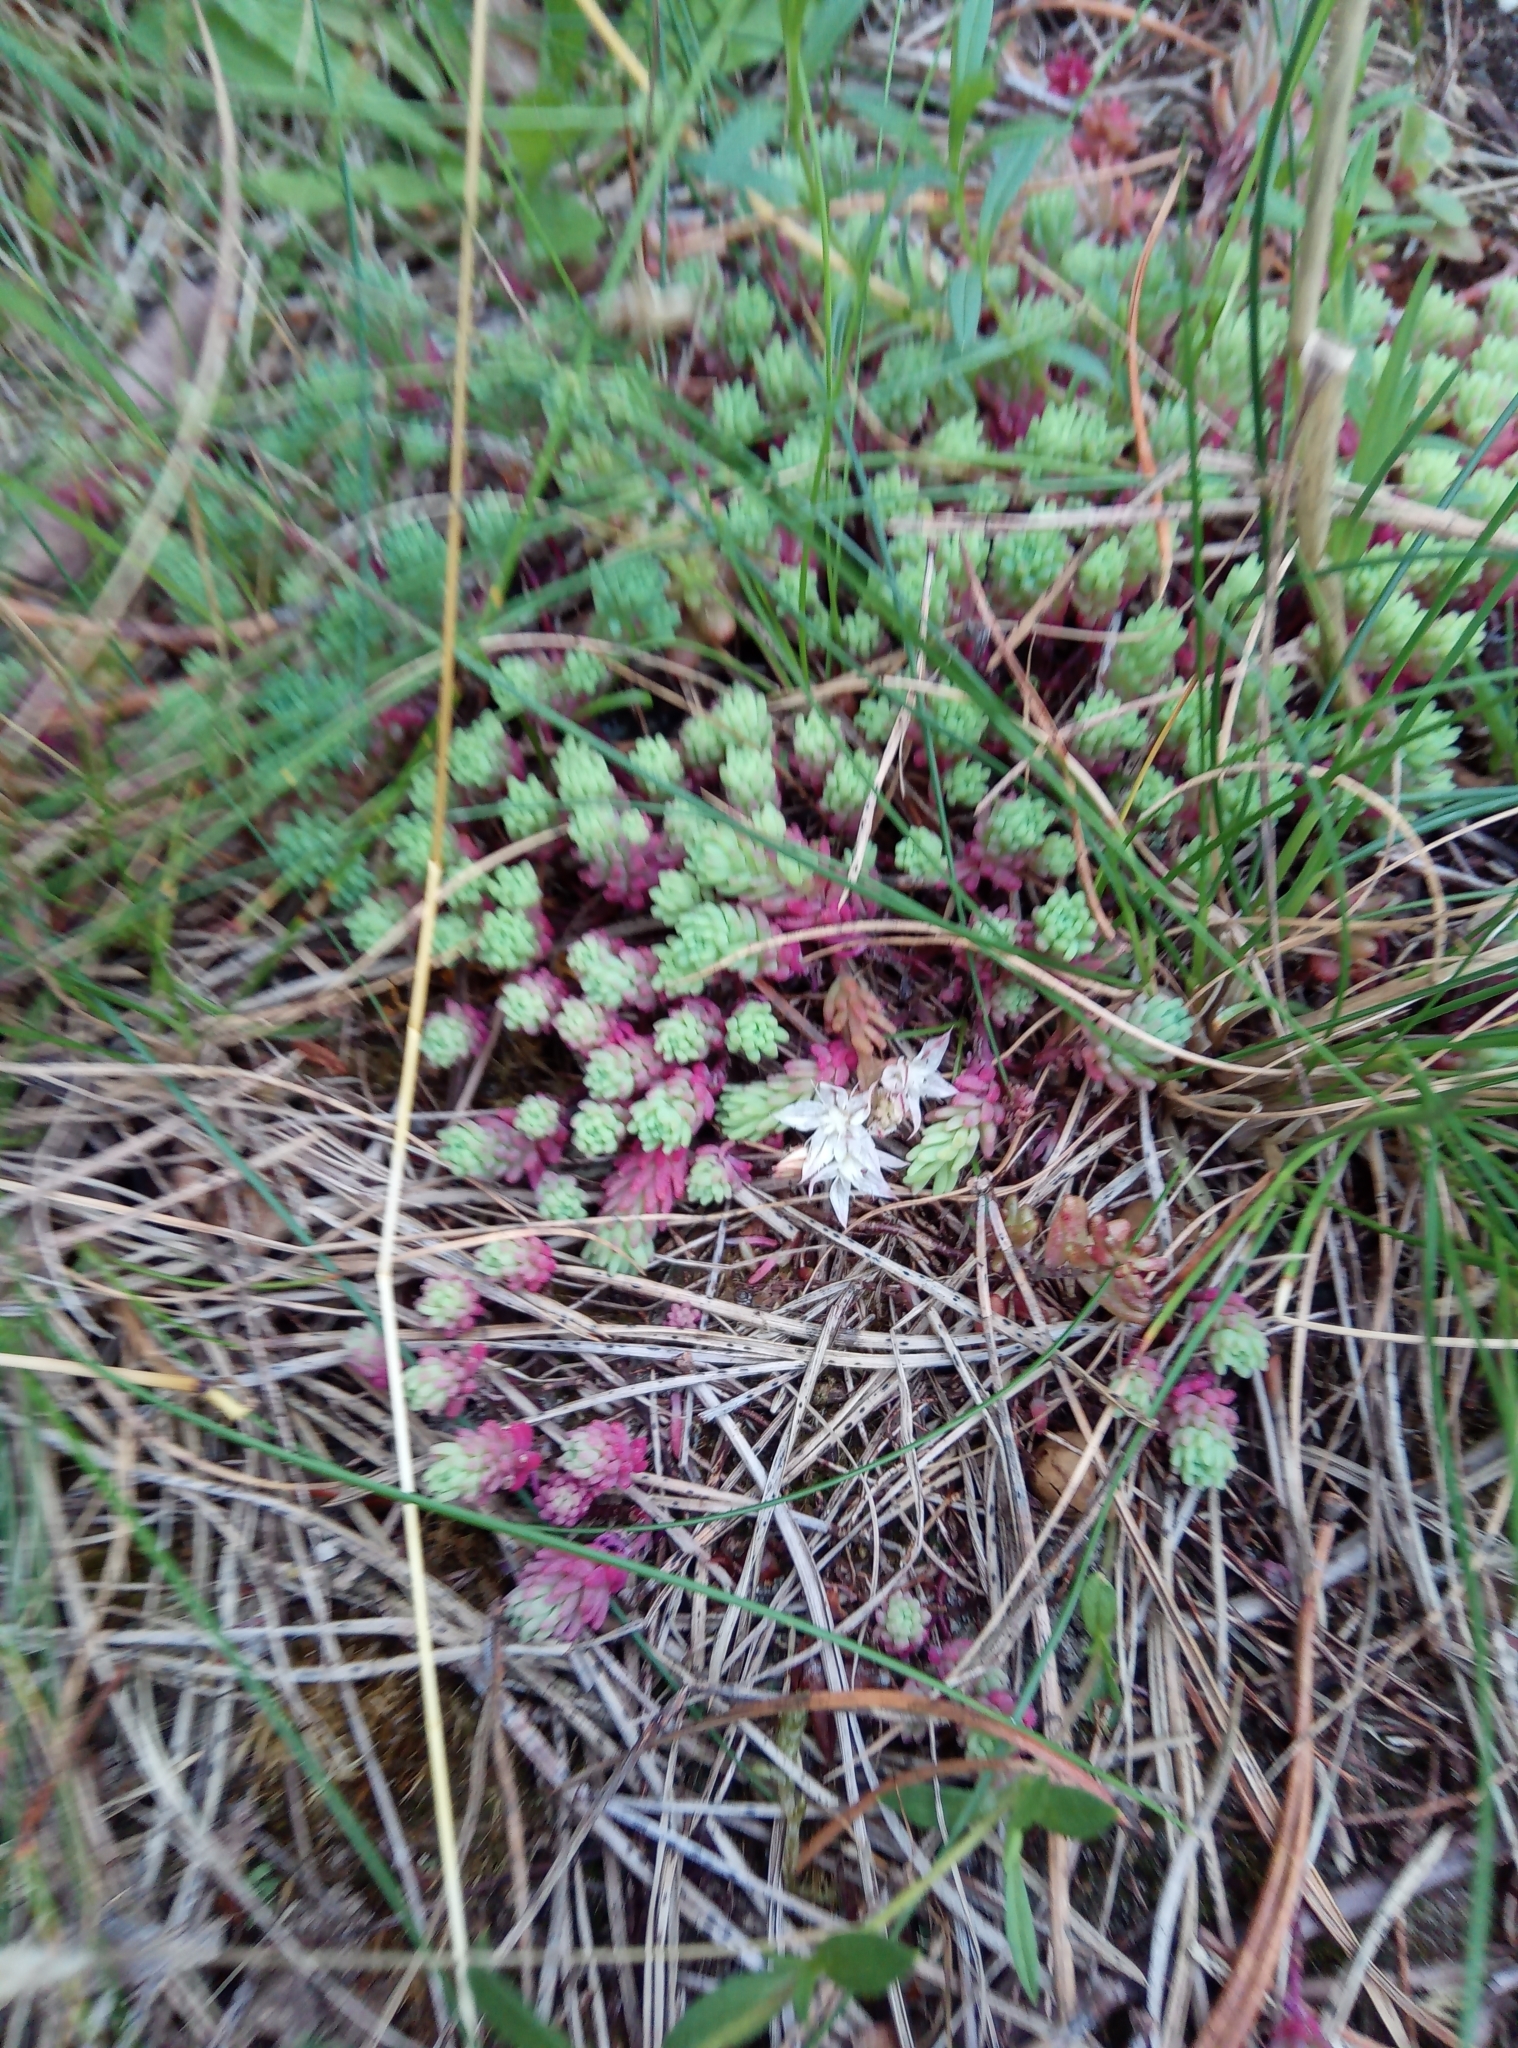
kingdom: Plantae
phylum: Tracheophyta
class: Magnoliopsida
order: Saxifragales
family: Crassulaceae
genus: Sedum
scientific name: Sedum pallidum
